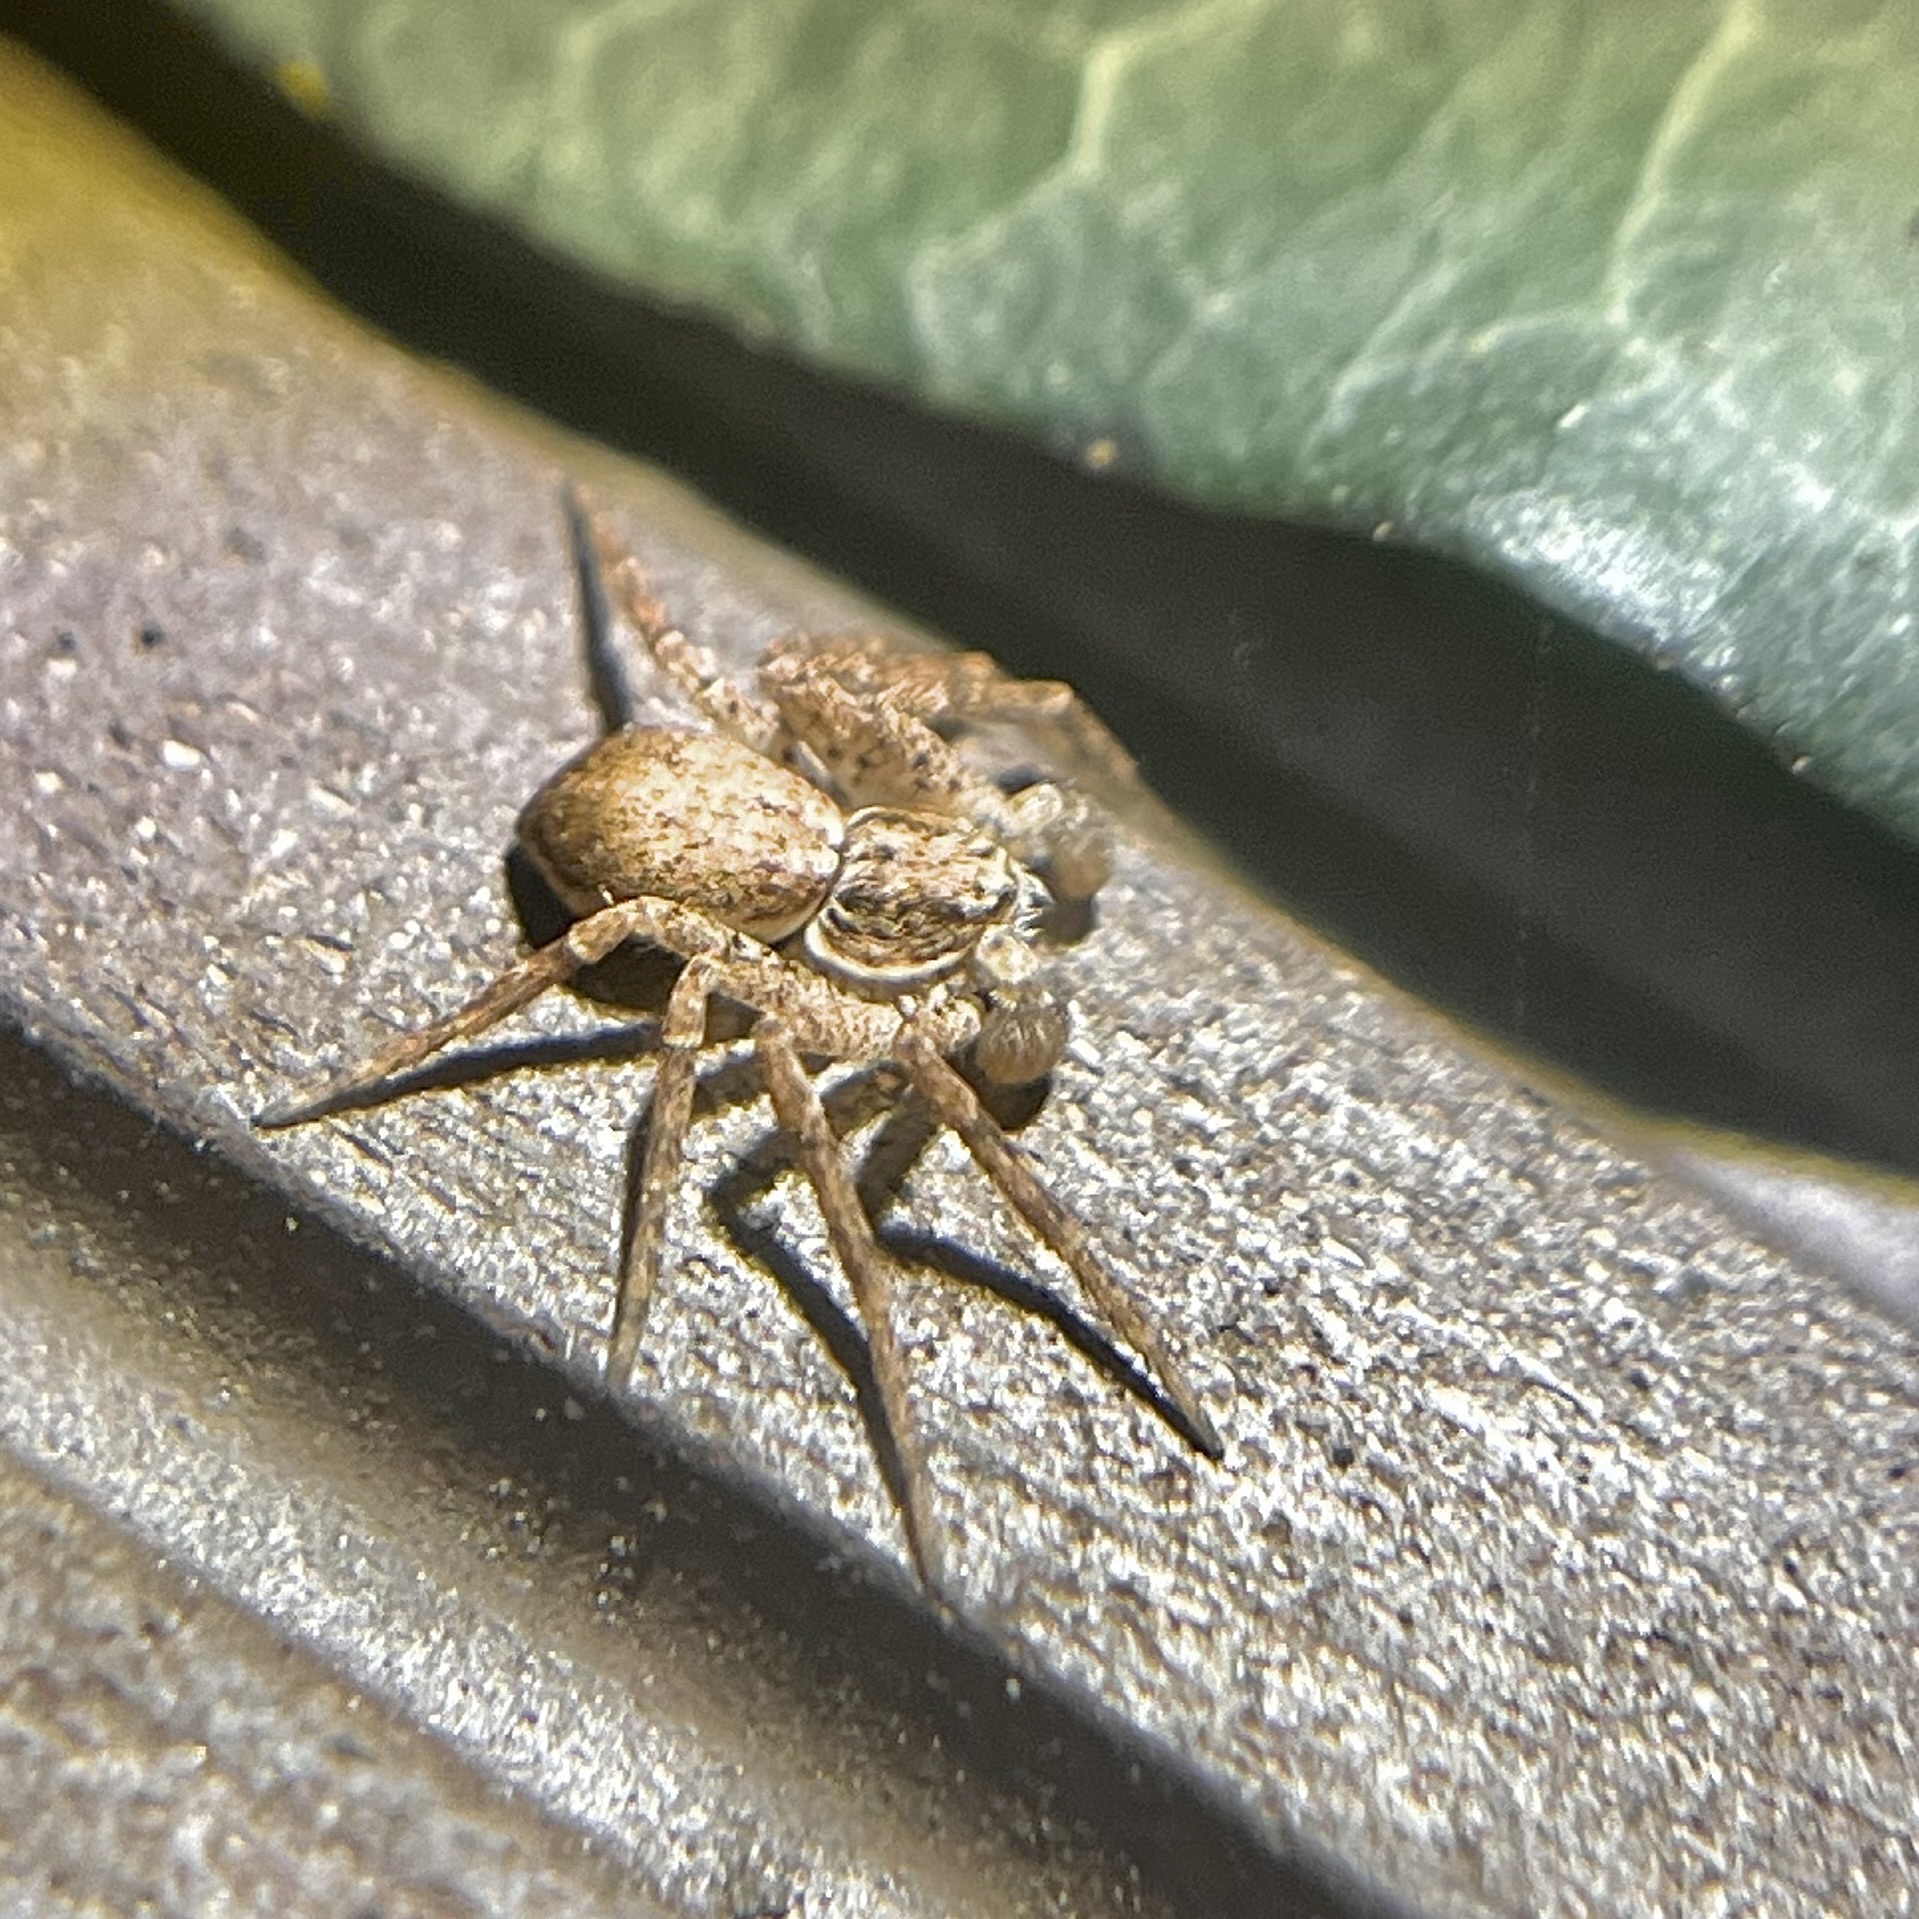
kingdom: Animalia
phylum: Arthropoda
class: Arachnida
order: Araneae
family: Philodromidae
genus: Philodromus
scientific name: Philodromus dispar
